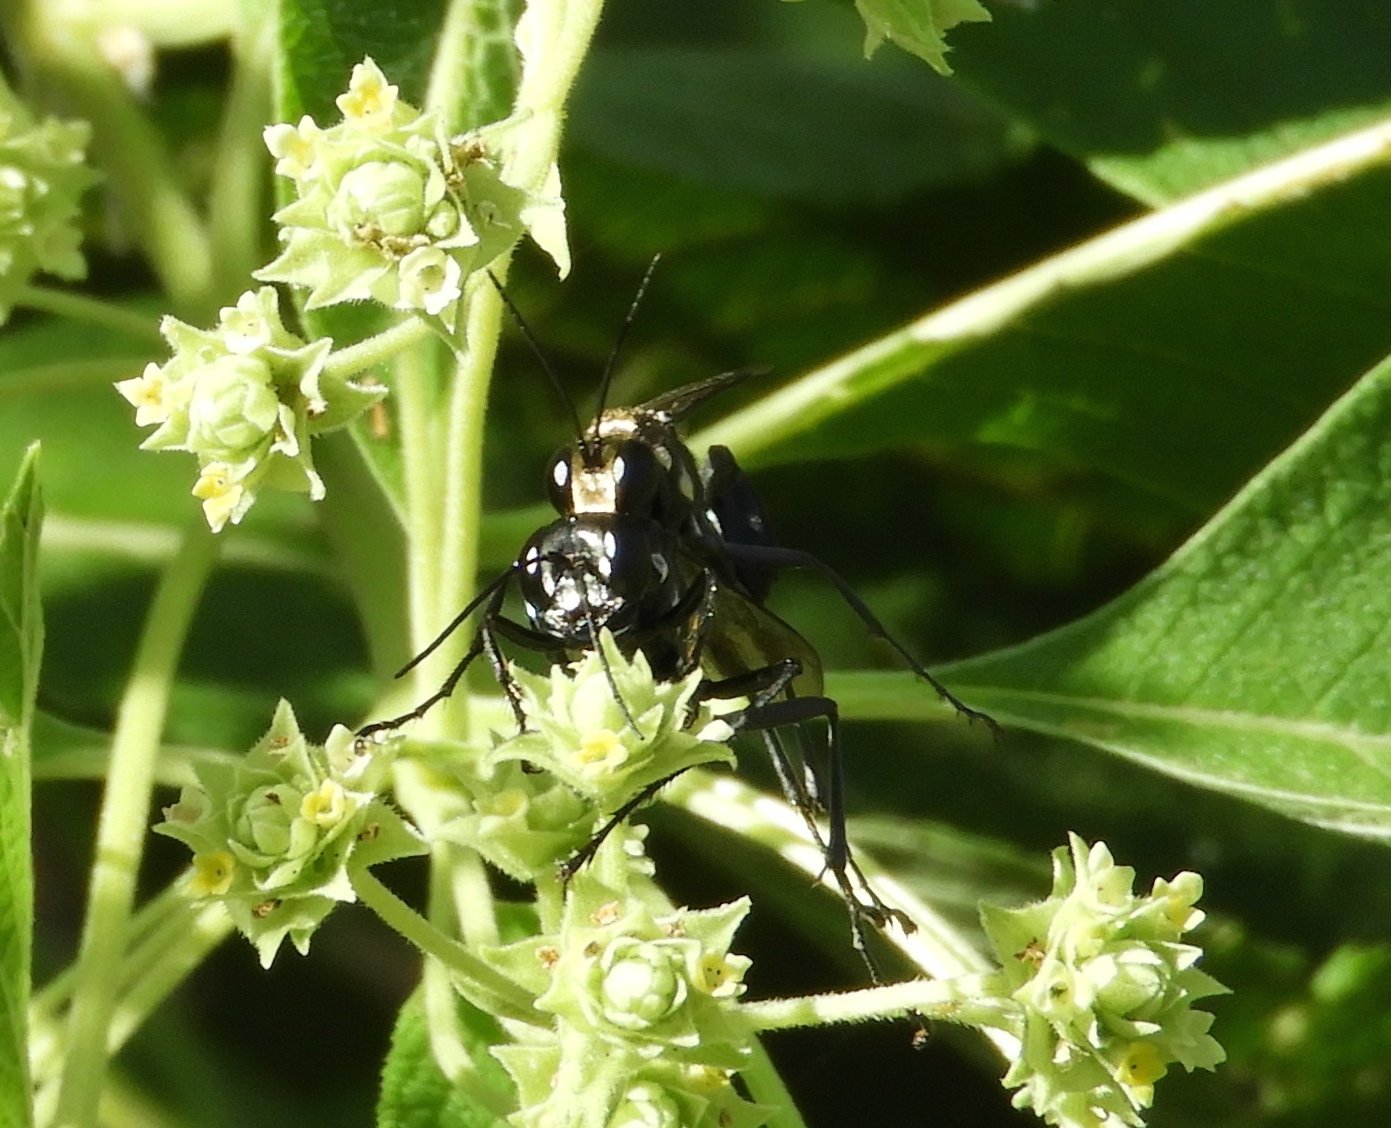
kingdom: Animalia
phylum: Arthropoda
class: Insecta
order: Hymenoptera
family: Sphecidae
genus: Eremnophila
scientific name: Eremnophila
